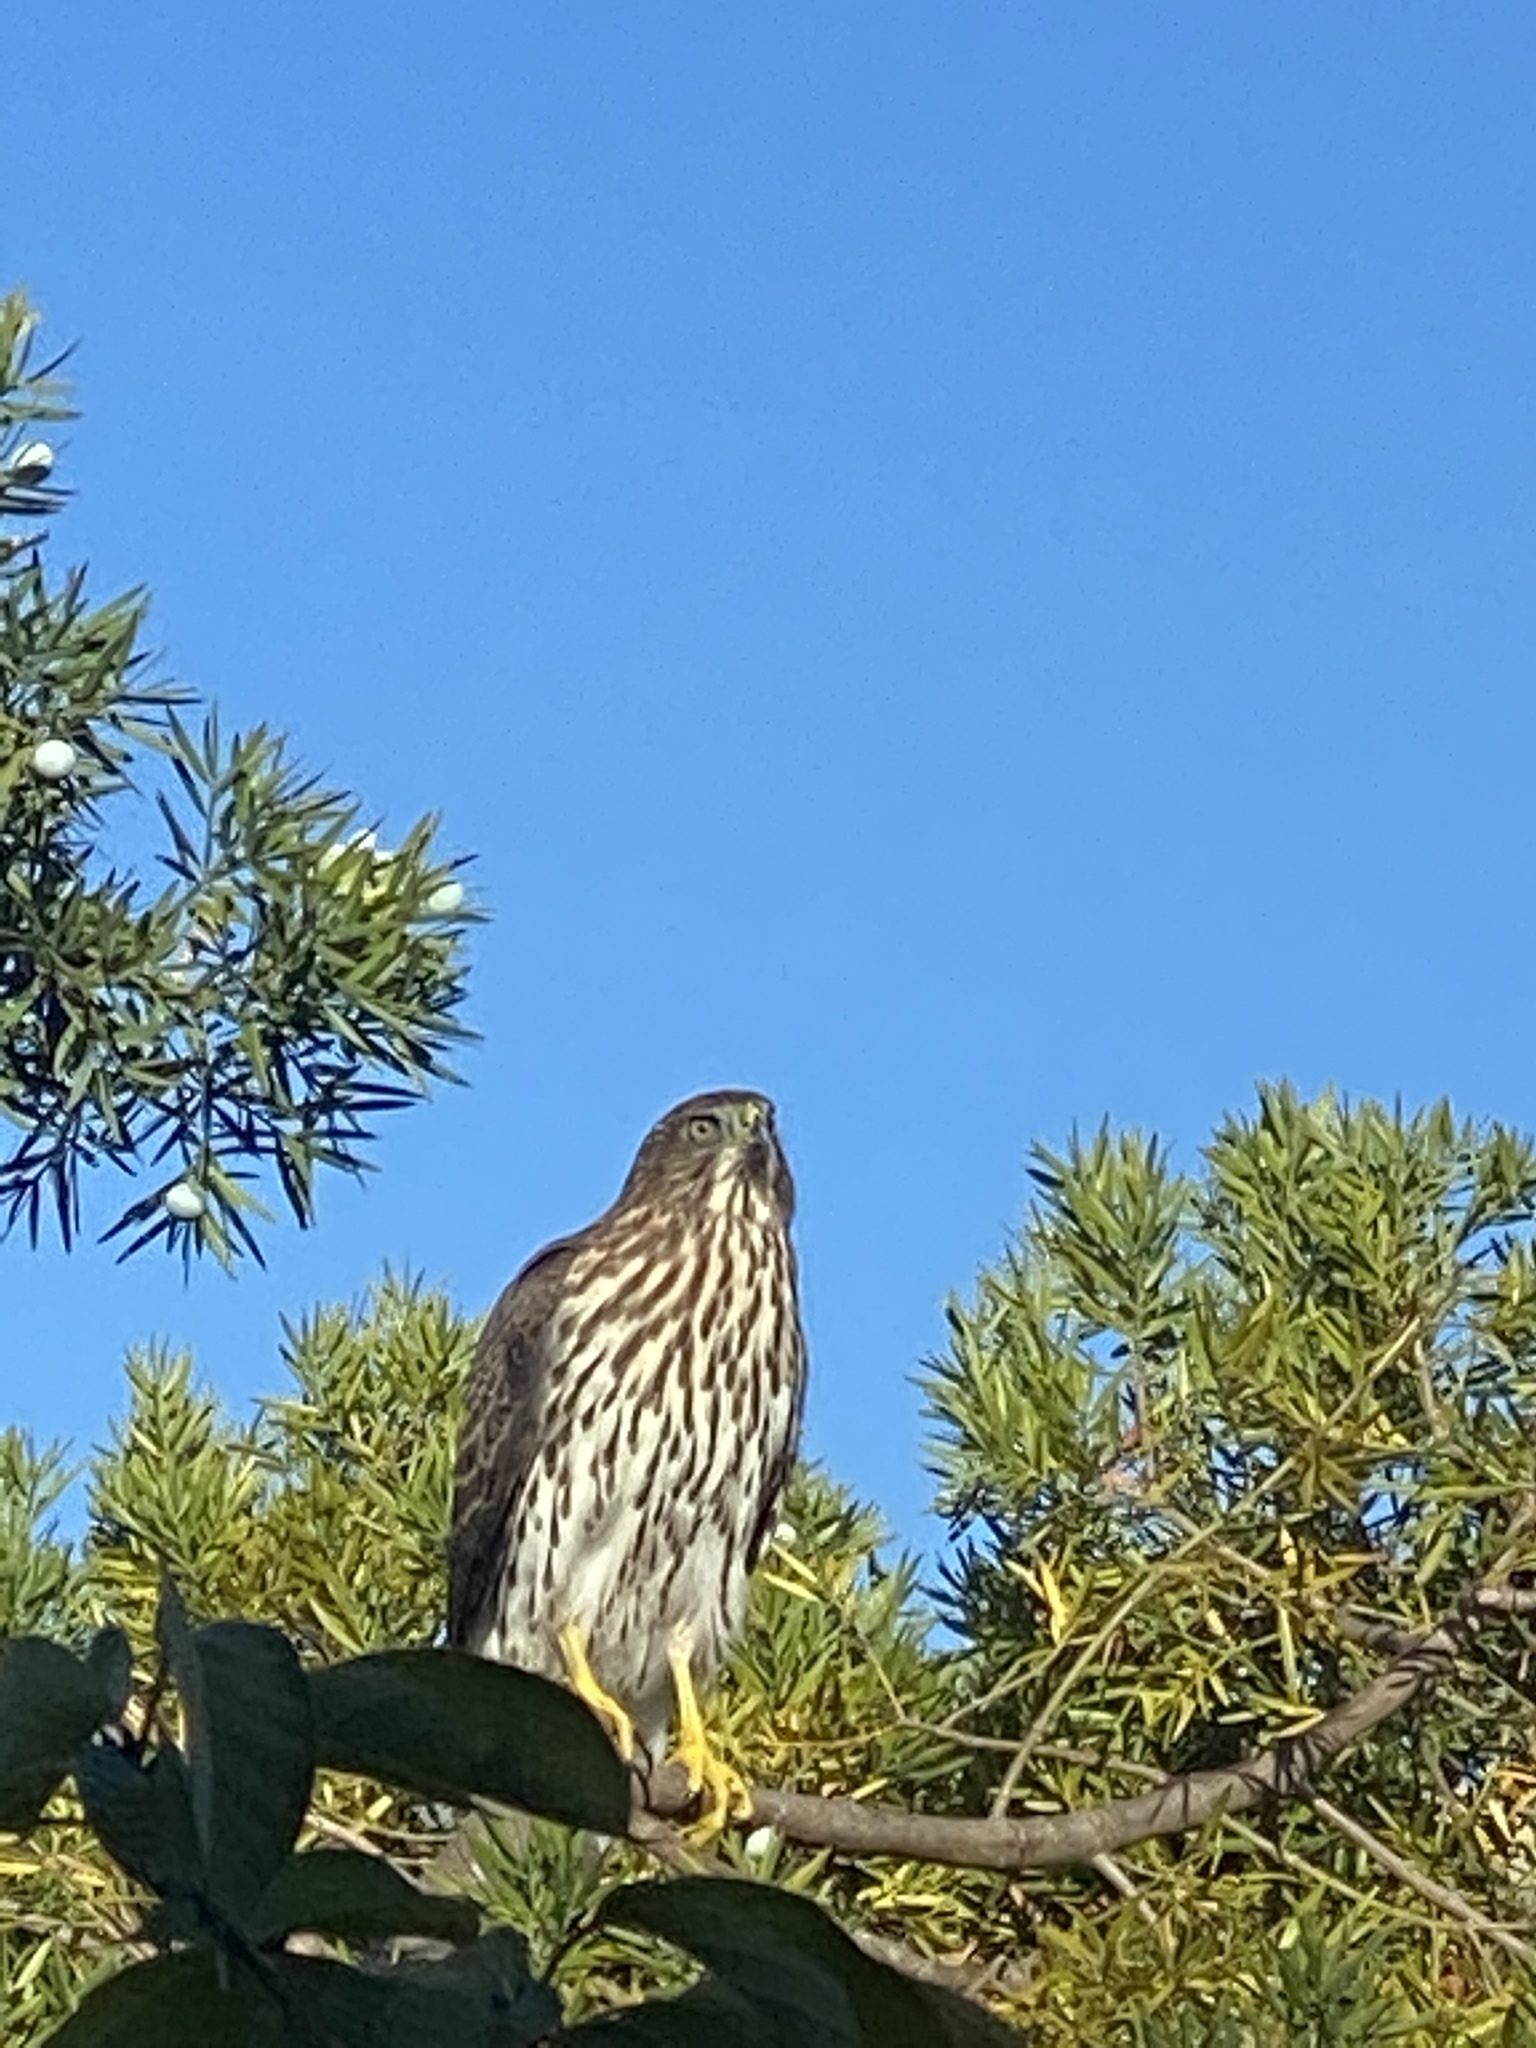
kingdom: Animalia
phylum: Chordata
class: Aves
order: Accipitriformes
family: Accipitridae
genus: Accipiter
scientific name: Accipiter cooperii
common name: Cooper's hawk
